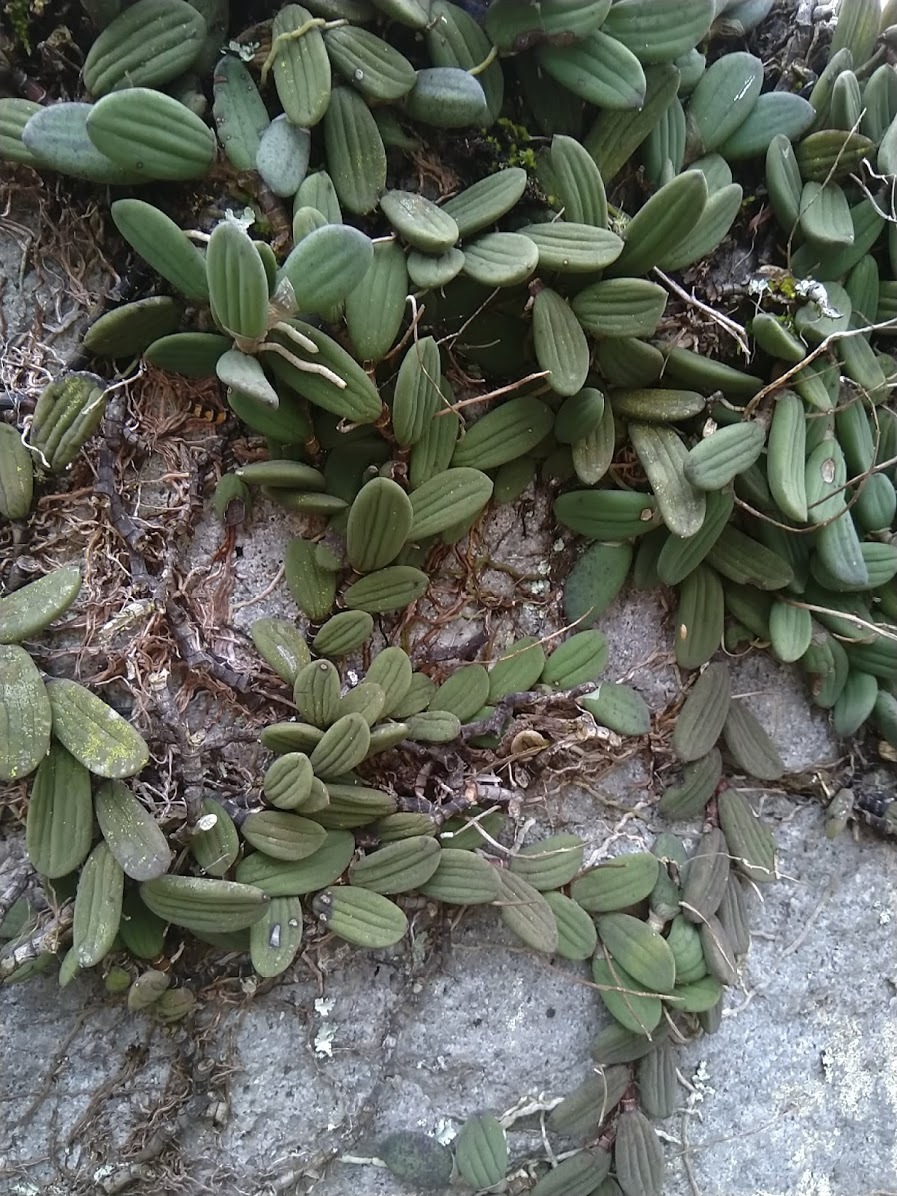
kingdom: Plantae
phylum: Tracheophyta
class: Liliopsida
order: Asparagales
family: Orchidaceae
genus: Dendrobium
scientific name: Dendrobium linguiforme
